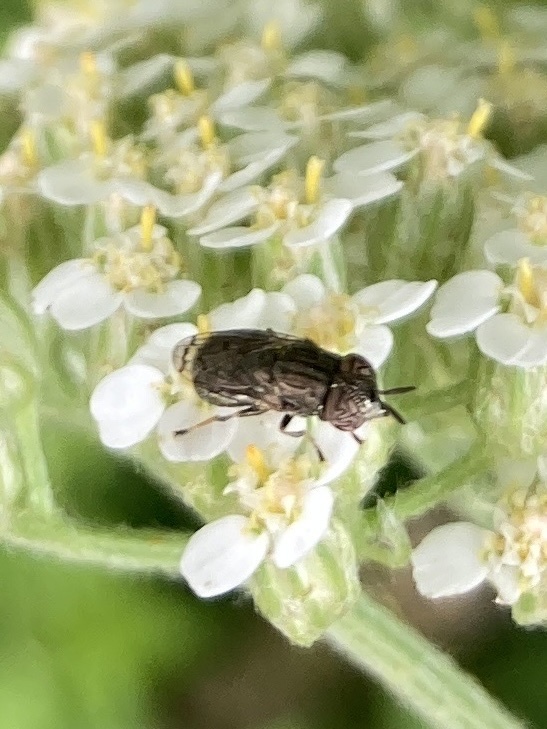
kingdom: Animalia
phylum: Arthropoda
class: Insecta
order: Diptera
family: Syrphidae
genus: Orthonevra
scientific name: Orthonevra nitida
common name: Wavy mucksucker
